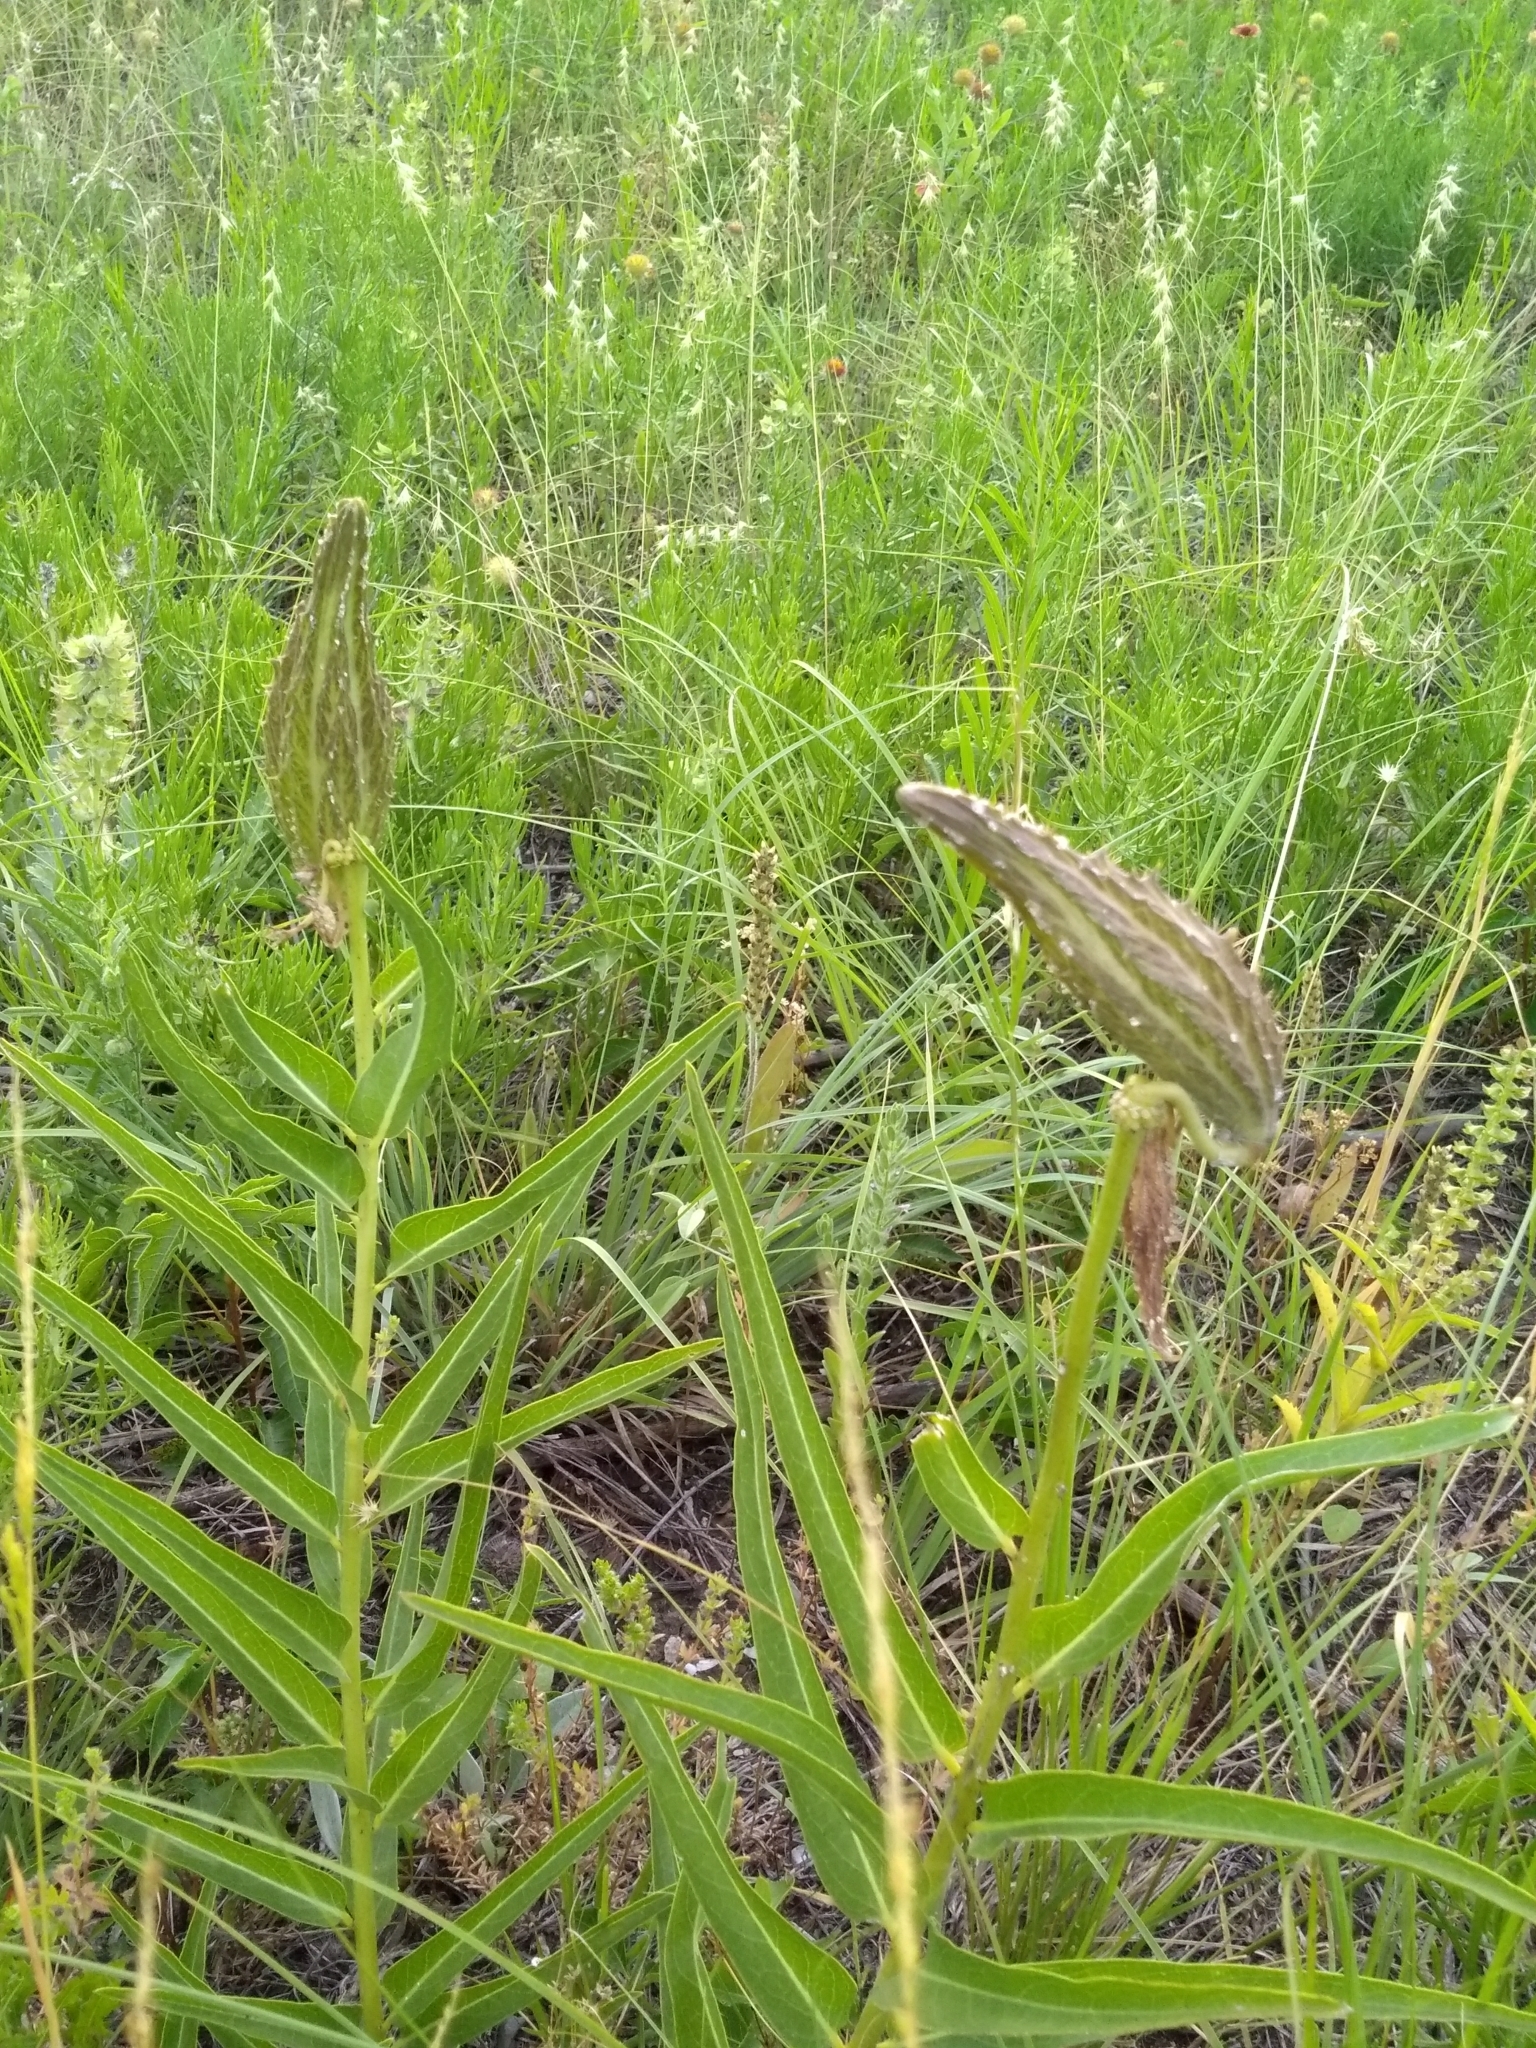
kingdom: Plantae
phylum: Tracheophyta
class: Magnoliopsida
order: Gentianales
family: Apocynaceae
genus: Asclepias
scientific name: Asclepias asperula
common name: Antelope horns
